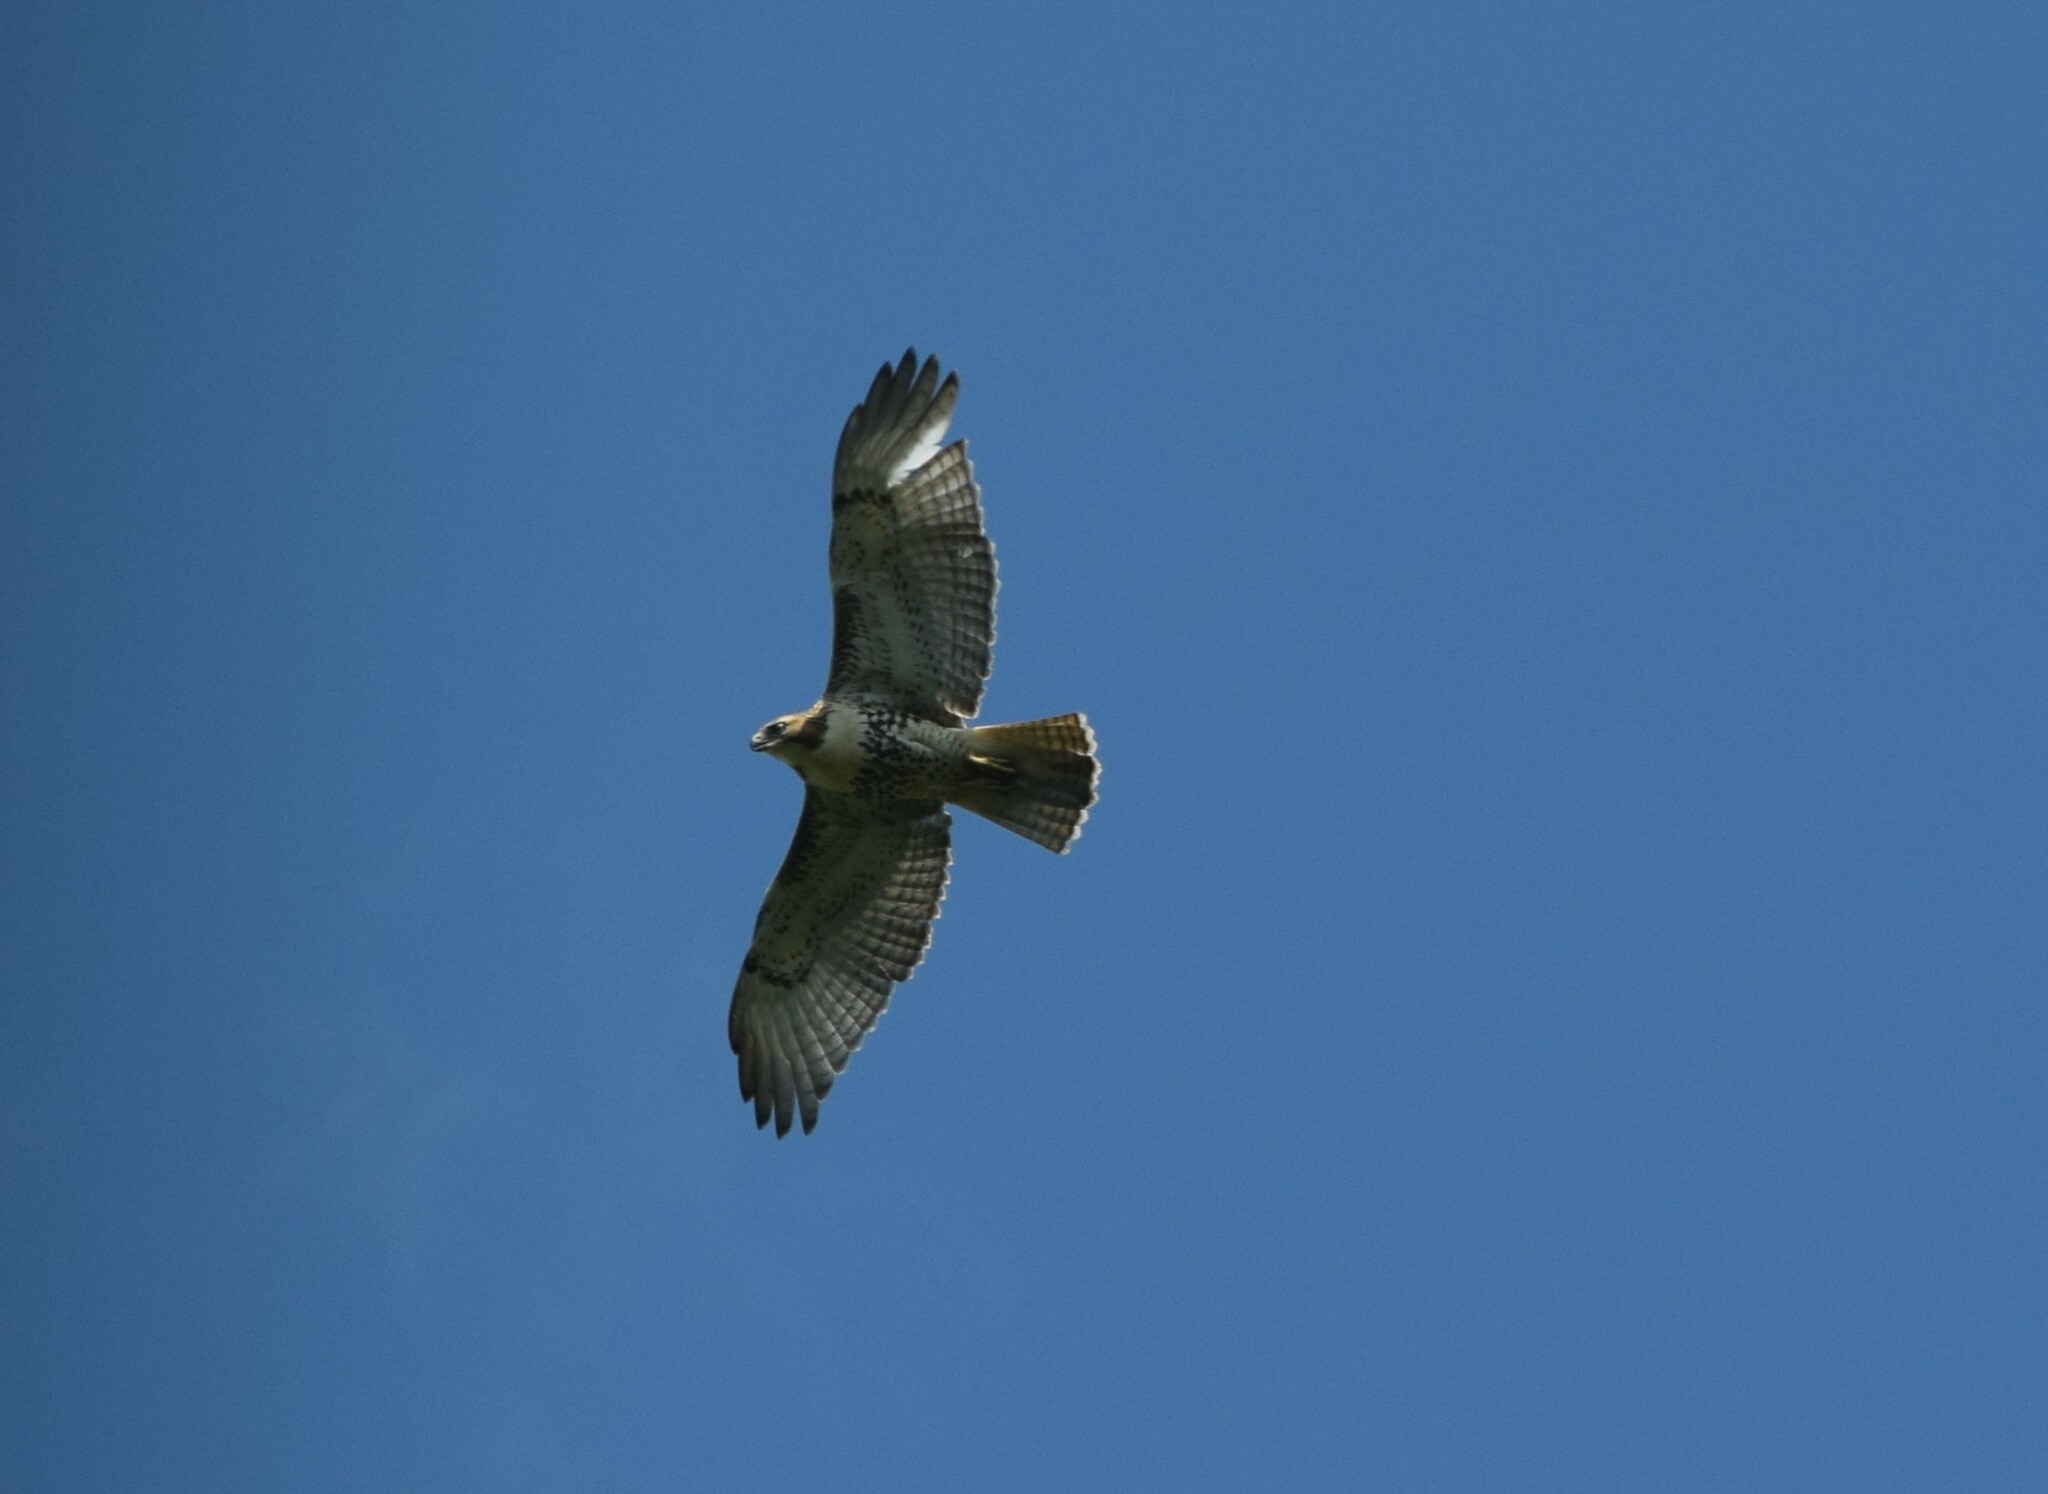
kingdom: Animalia
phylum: Chordata
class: Aves
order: Accipitriformes
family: Accipitridae
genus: Buteo
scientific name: Buteo jamaicensis
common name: Red-tailed hawk
